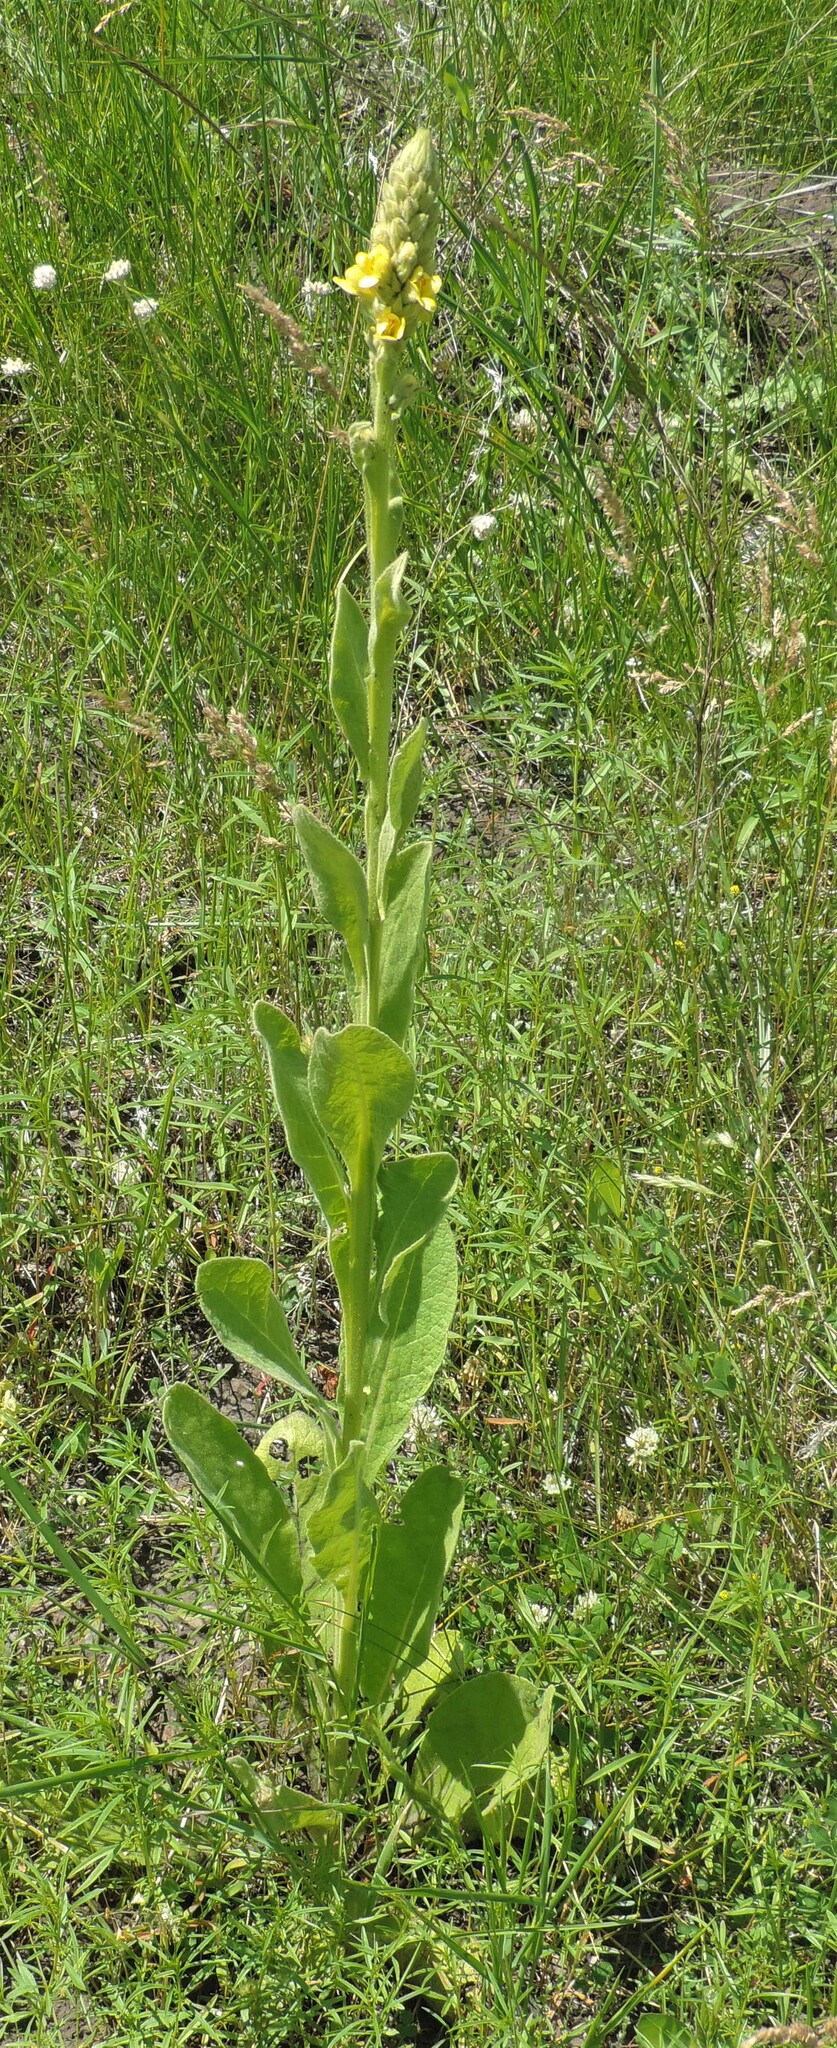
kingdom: Plantae
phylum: Tracheophyta
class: Magnoliopsida
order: Lamiales
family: Scrophulariaceae
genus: Verbascum
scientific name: Verbascum thapsus
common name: Common mullein
